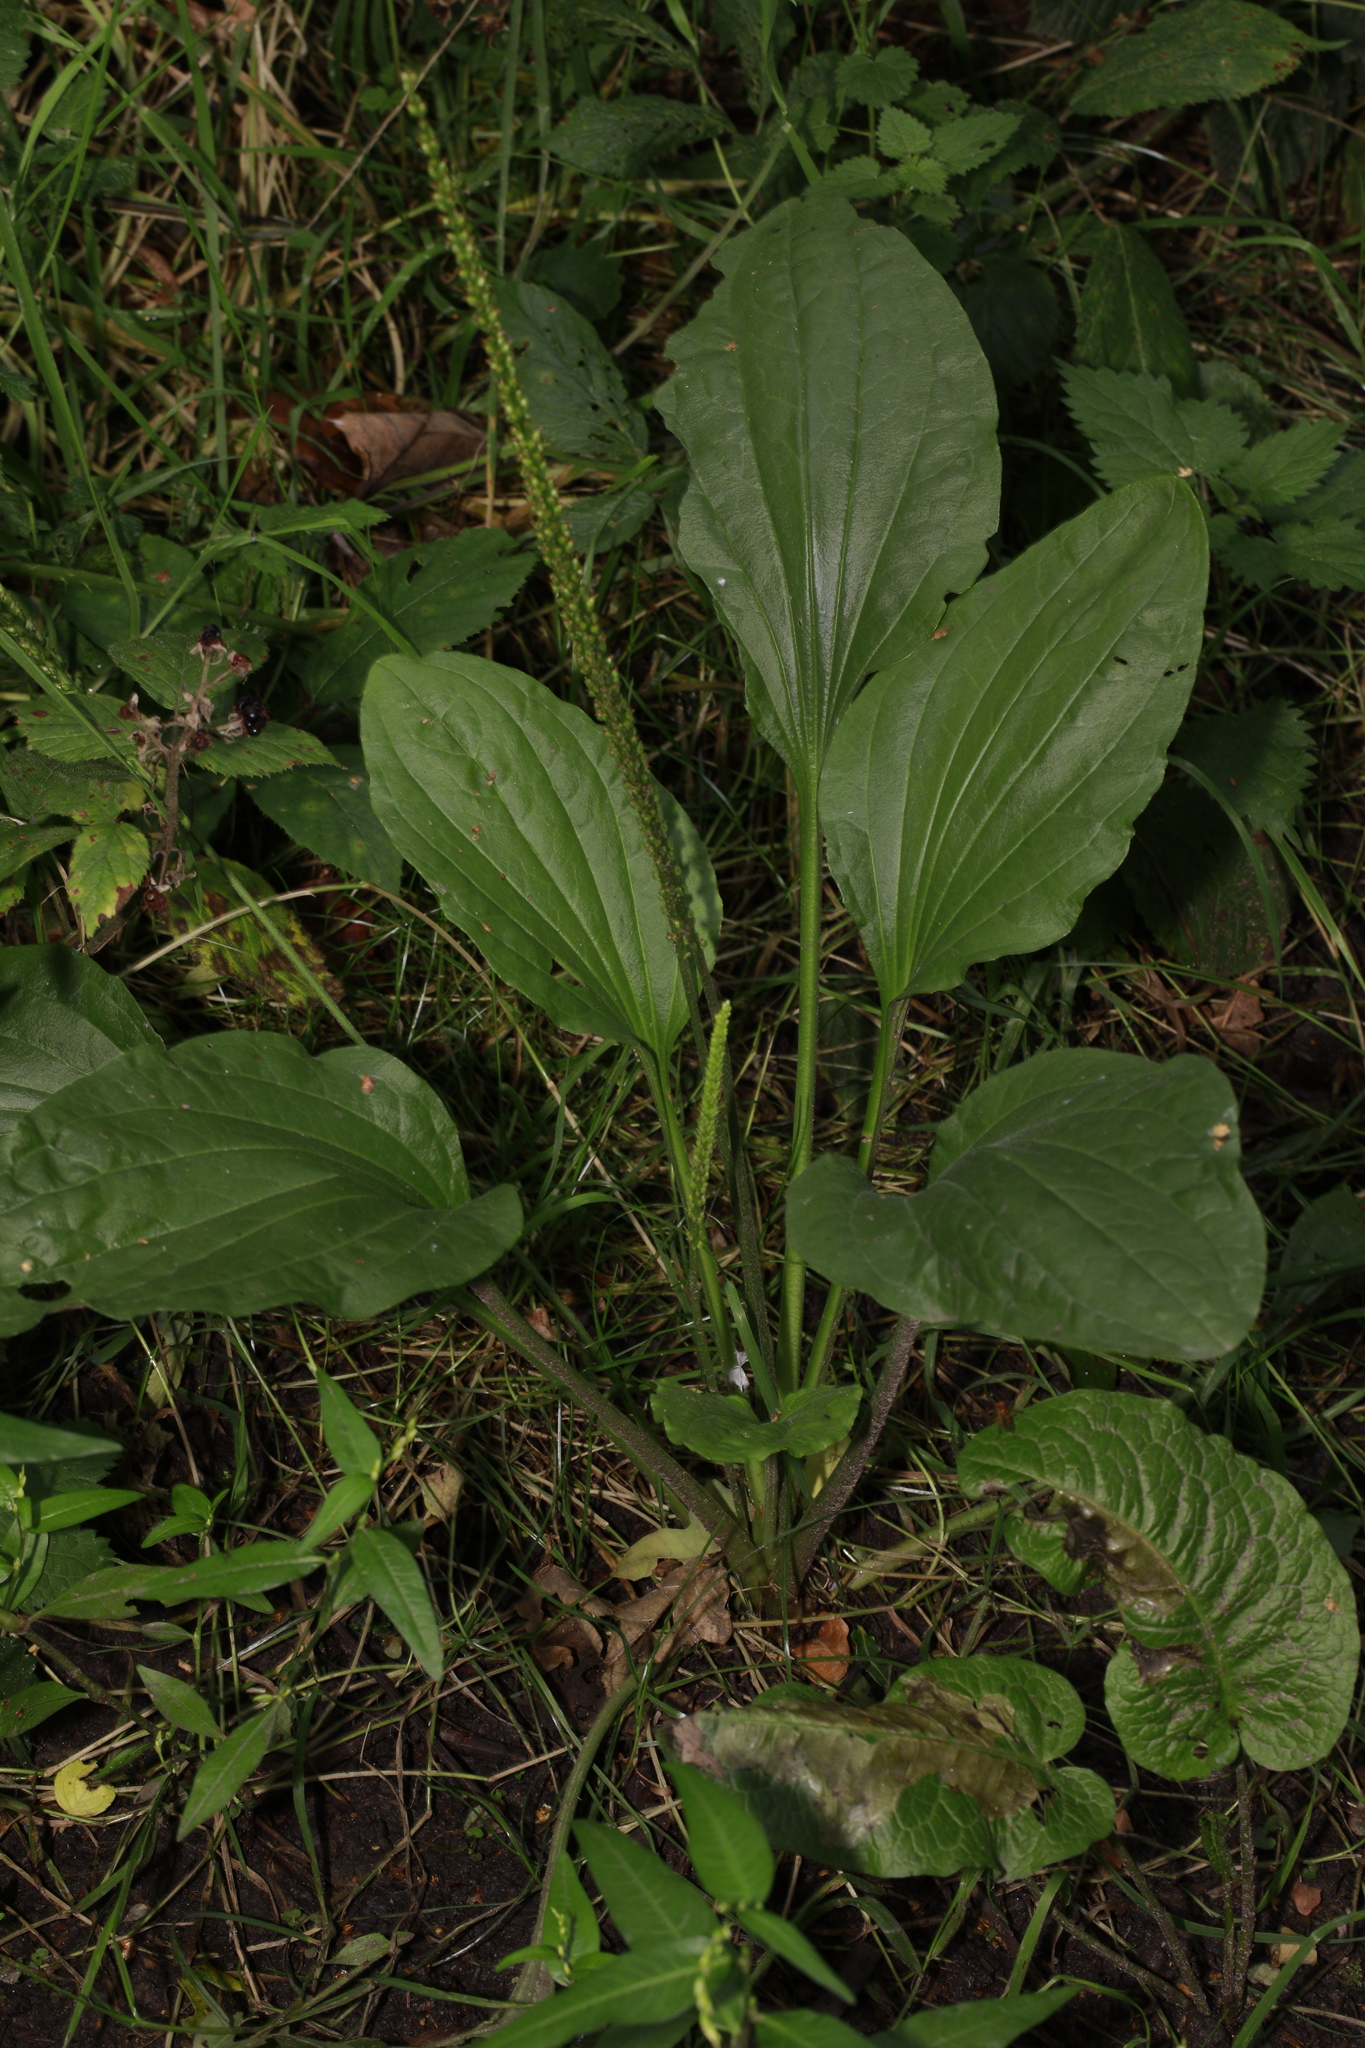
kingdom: Plantae
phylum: Tracheophyta
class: Magnoliopsida
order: Lamiales
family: Plantaginaceae
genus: Plantago
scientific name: Plantago major
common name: Common plantain
